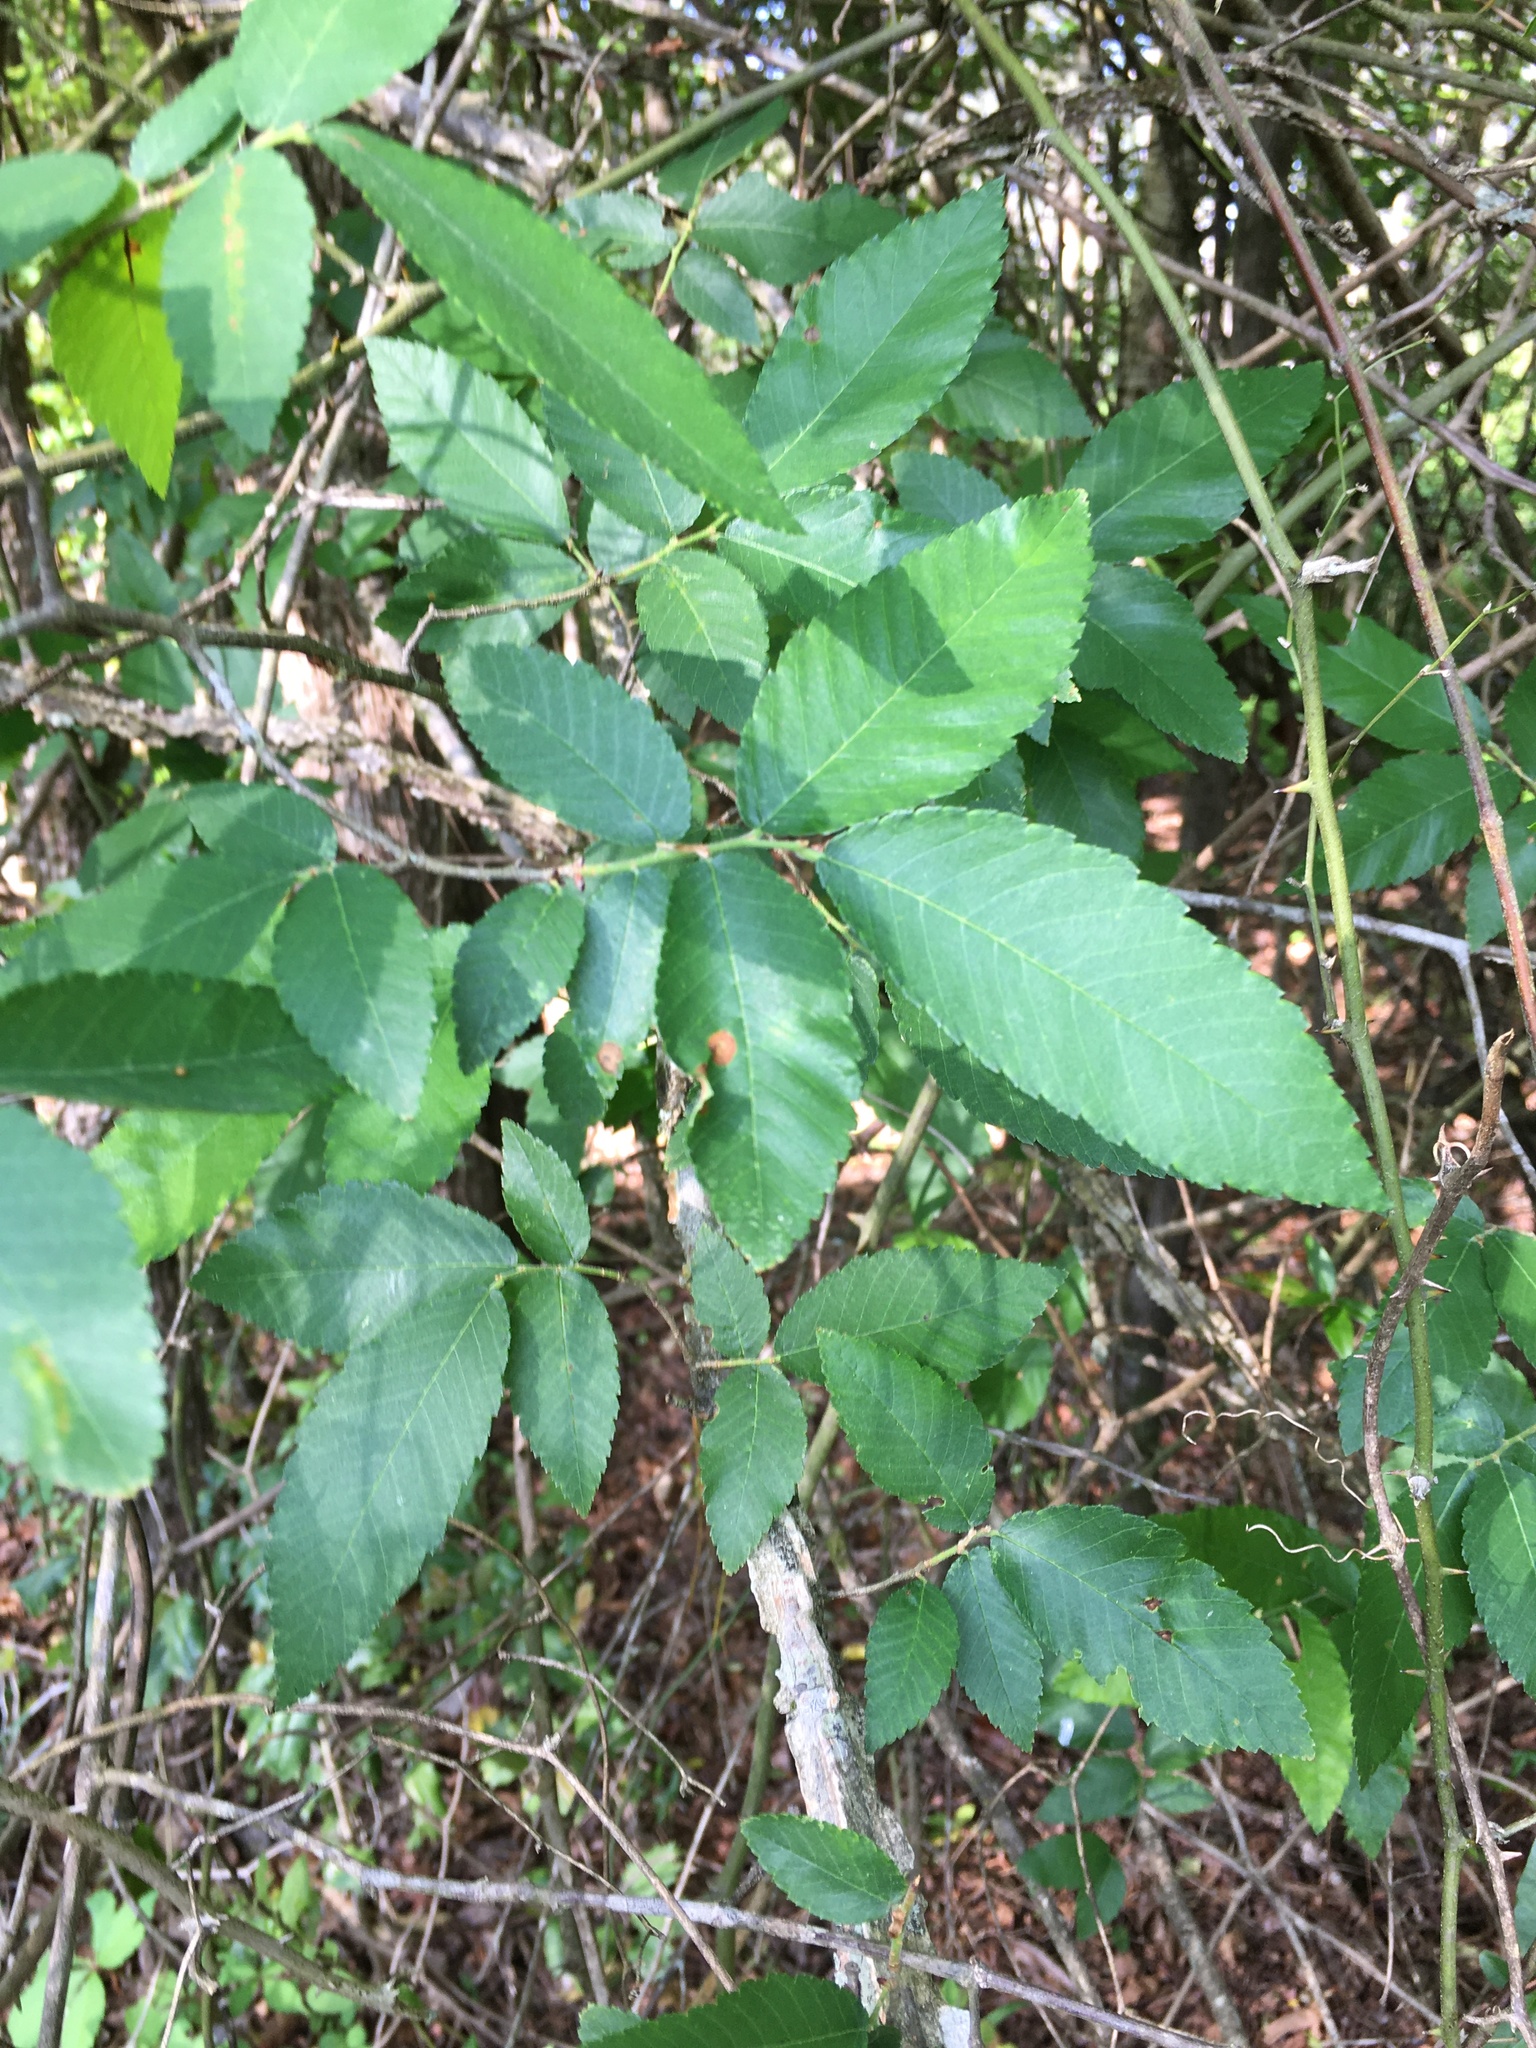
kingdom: Plantae
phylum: Tracheophyta
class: Magnoliopsida
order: Rosales
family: Ulmaceae
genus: Ulmus
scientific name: Ulmus alata
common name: Winged elm
